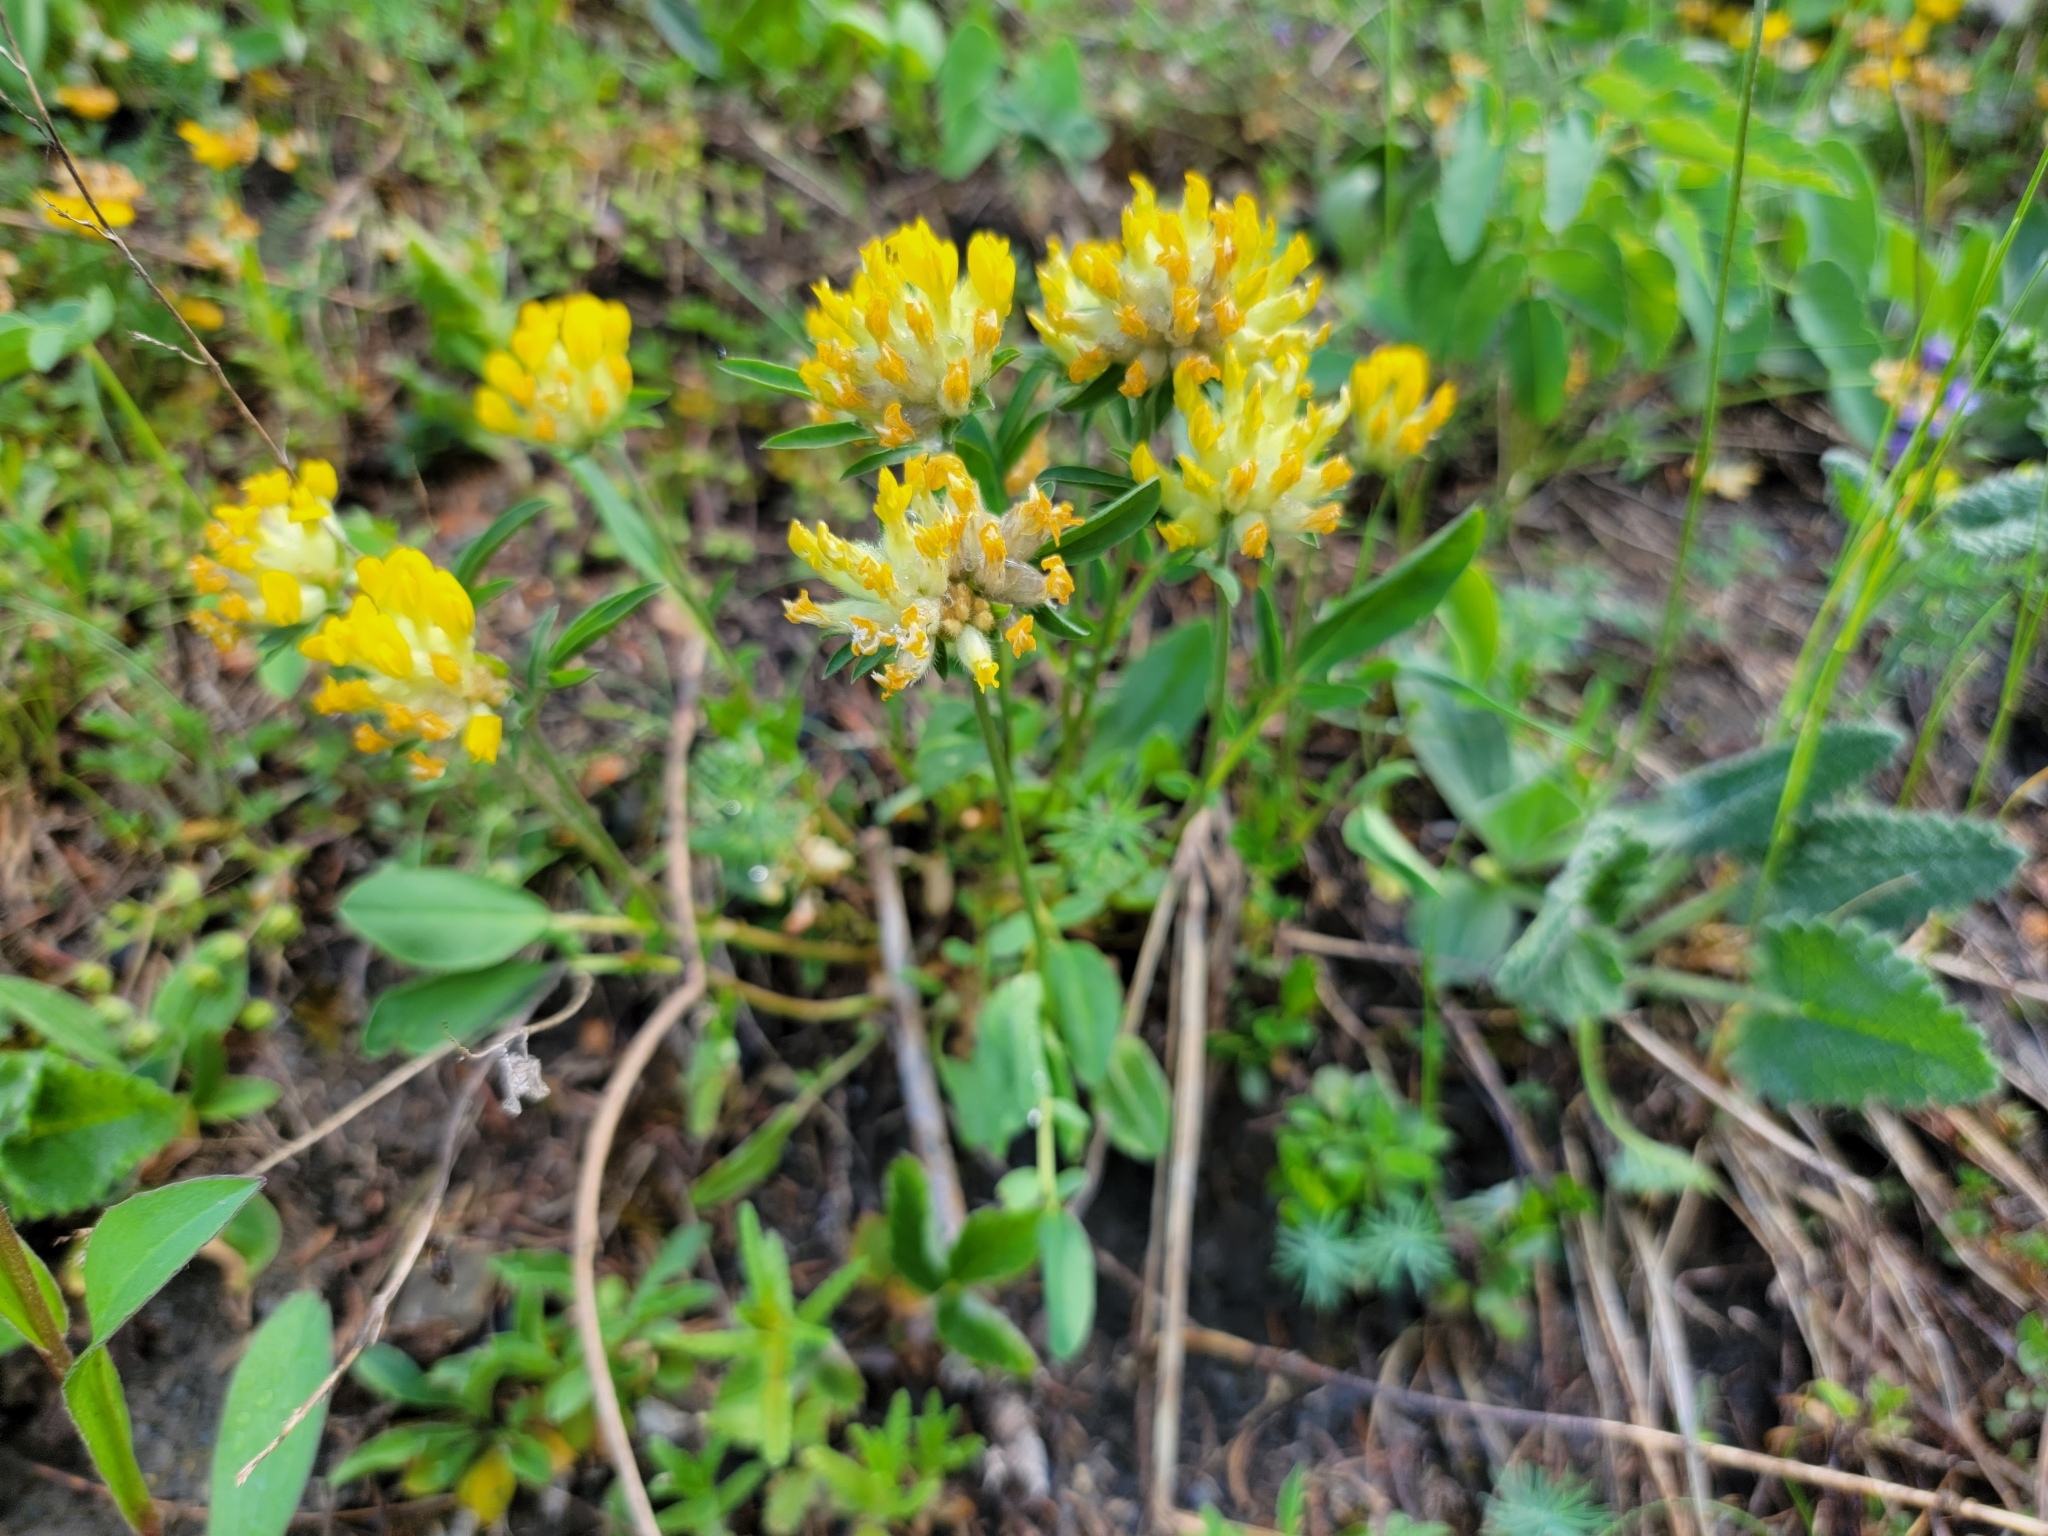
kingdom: Plantae
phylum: Tracheophyta
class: Magnoliopsida
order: Fabales
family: Fabaceae
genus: Anthyllis
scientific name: Anthyllis vulneraria
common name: Kidney vetch
